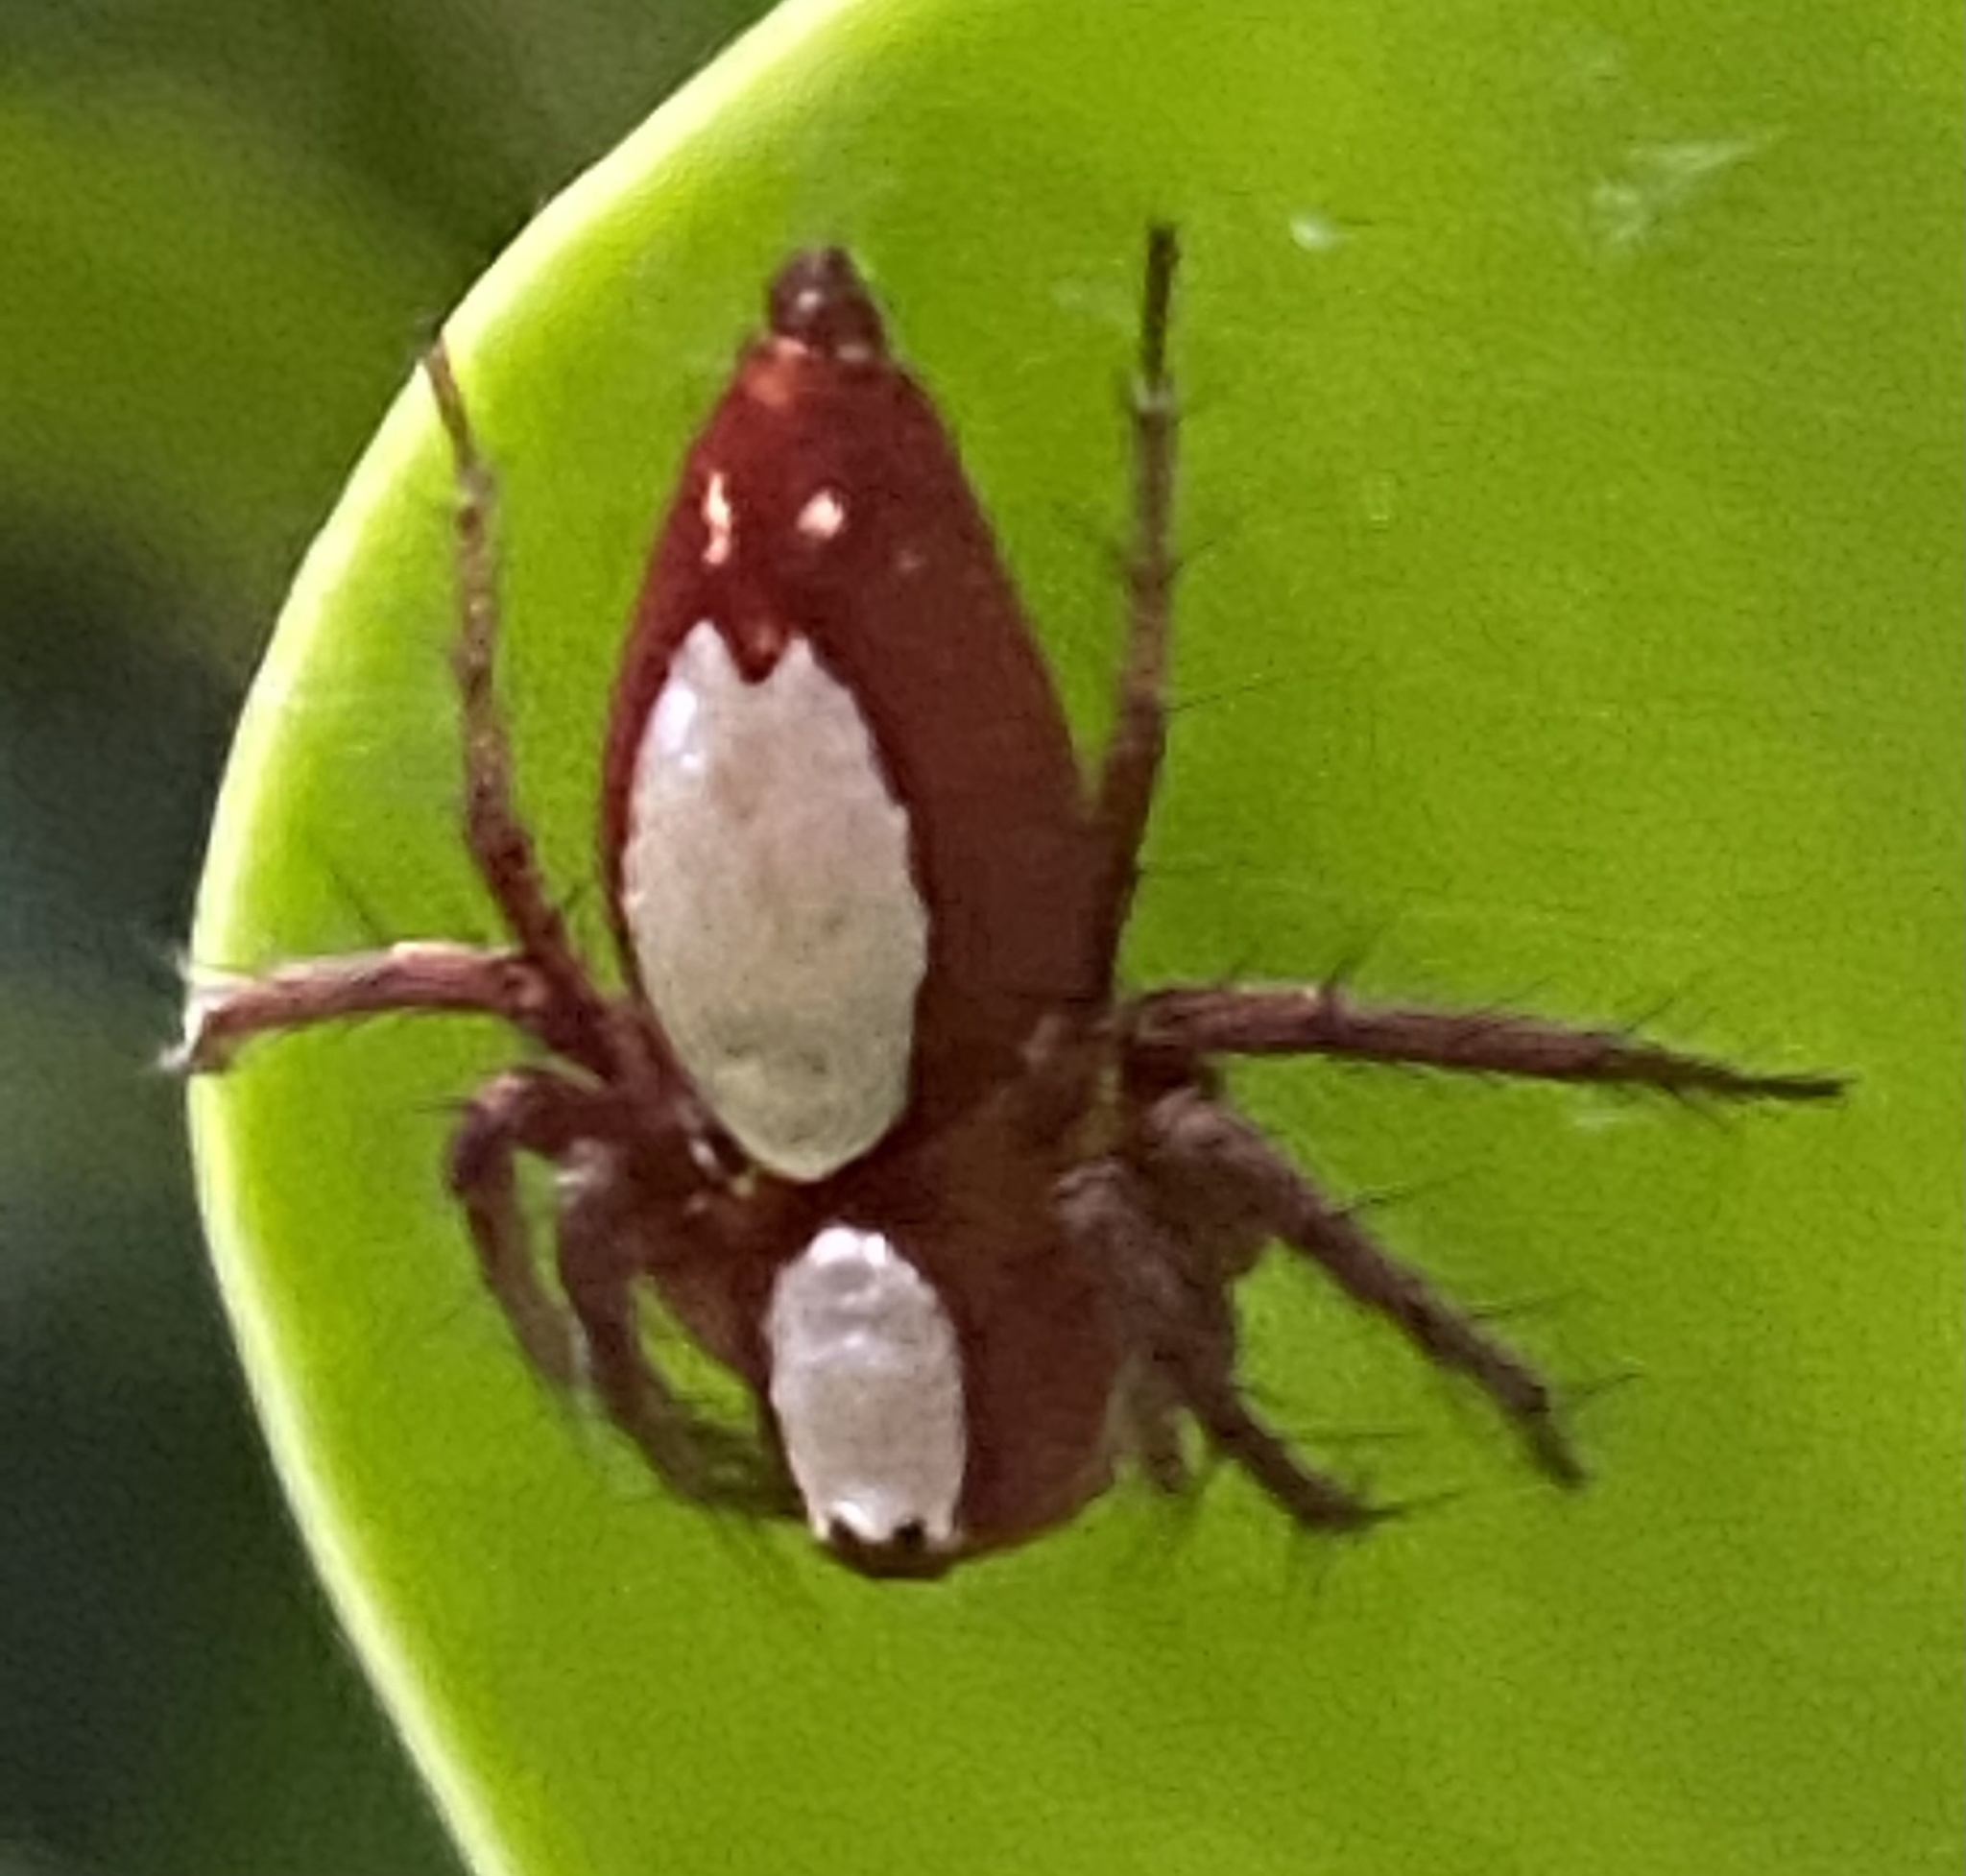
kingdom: Animalia
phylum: Arthropoda
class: Arachnida
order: Araneae
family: Oxyopidae
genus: Oxyopes
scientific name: Oxyopes niveosigillatus
